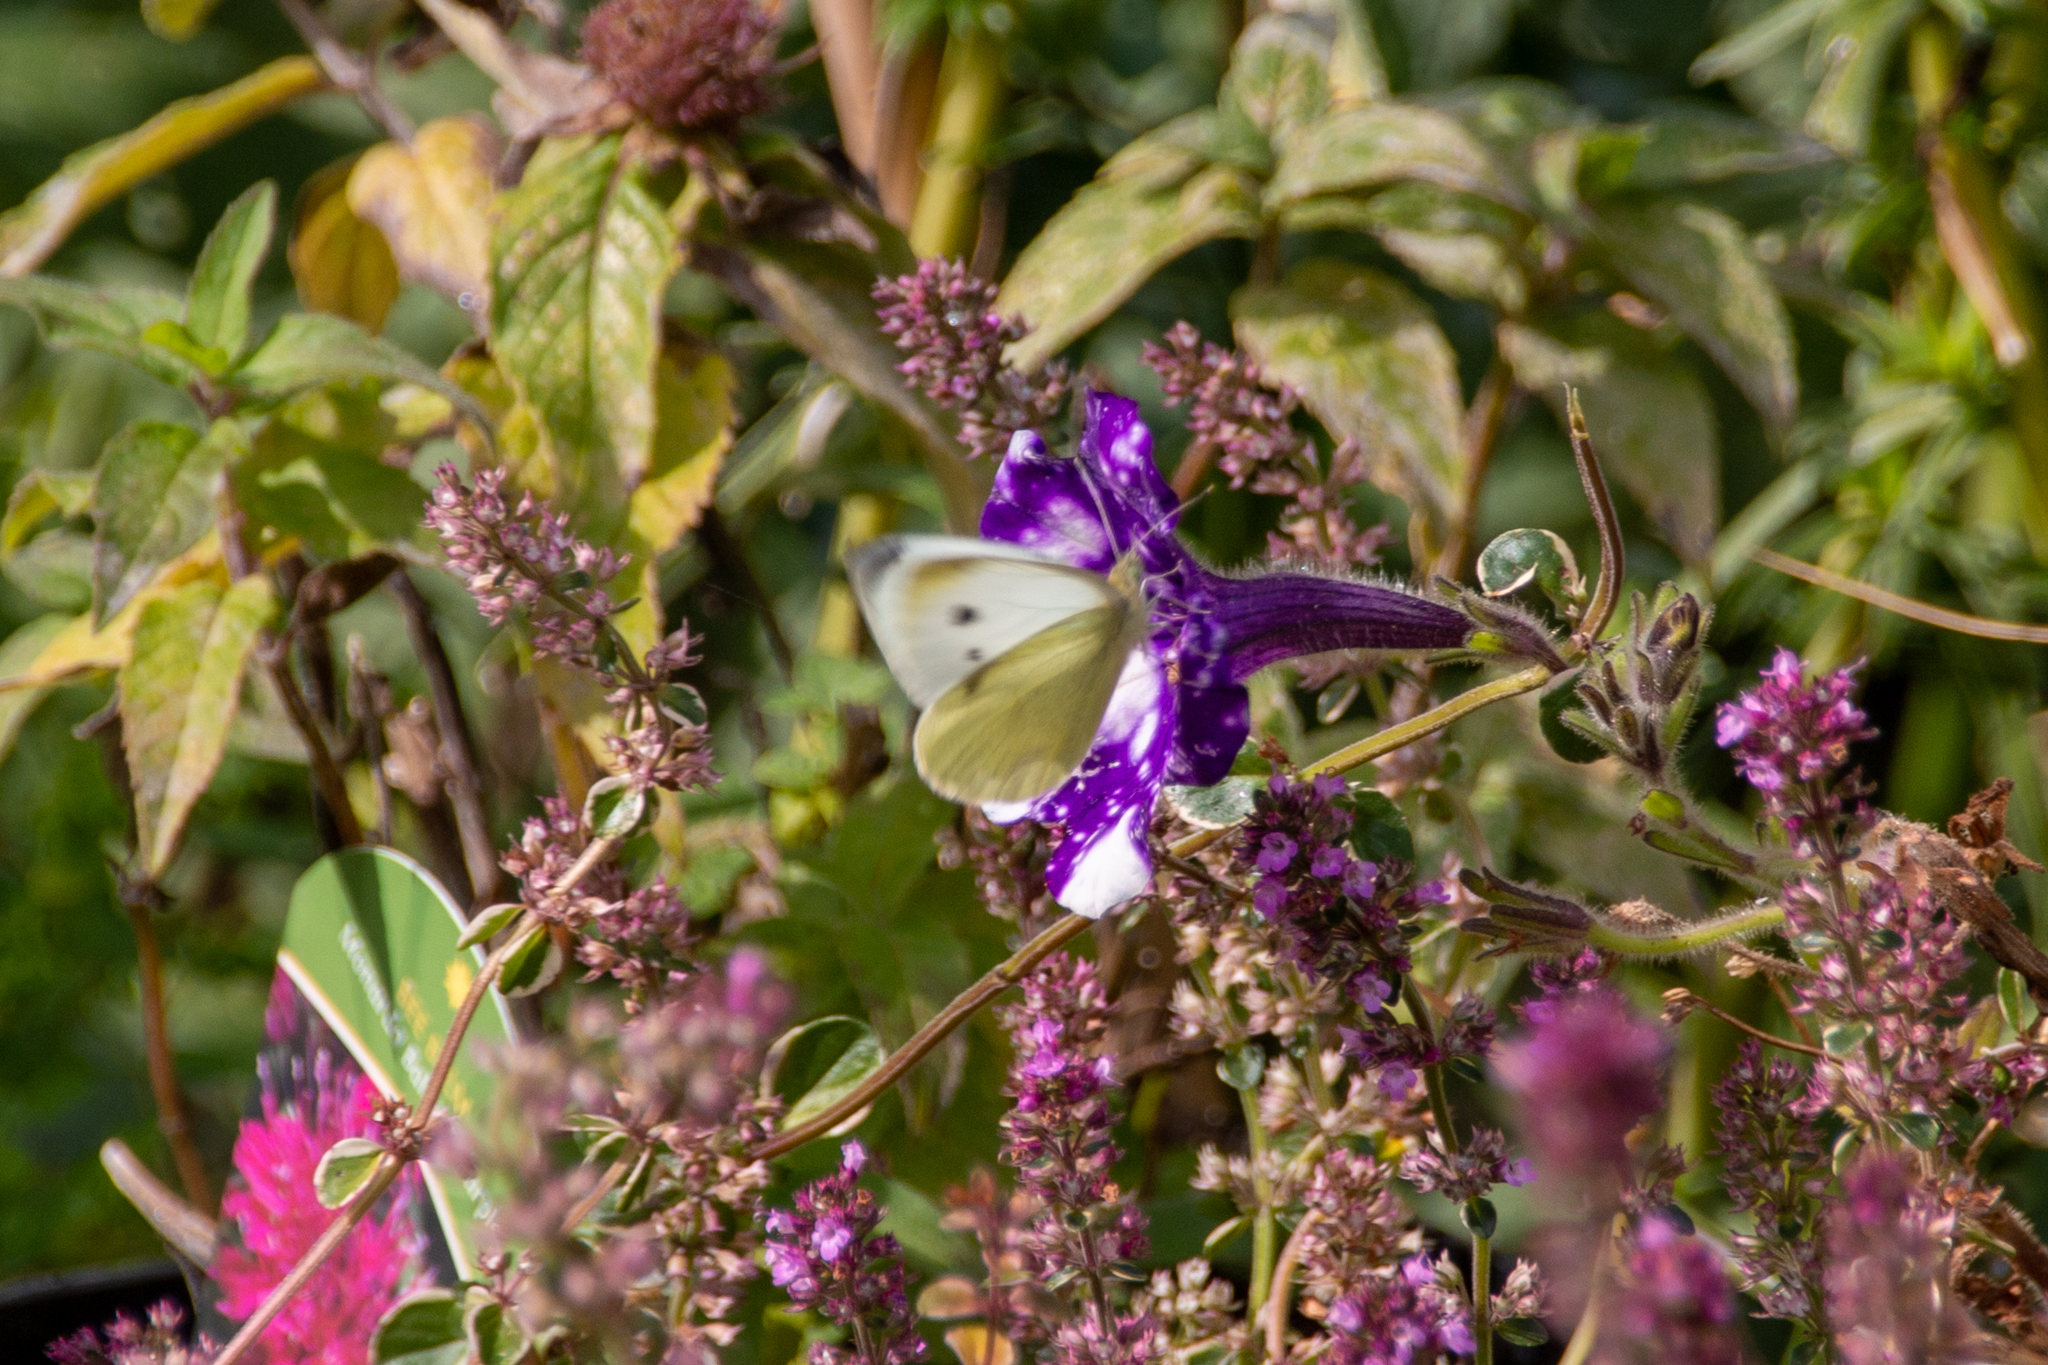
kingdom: Animalia
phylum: Arthropoda
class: Insecta
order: Lepidoptera
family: Pieridae
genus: Pieris
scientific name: Pieris rapae
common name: Small white
